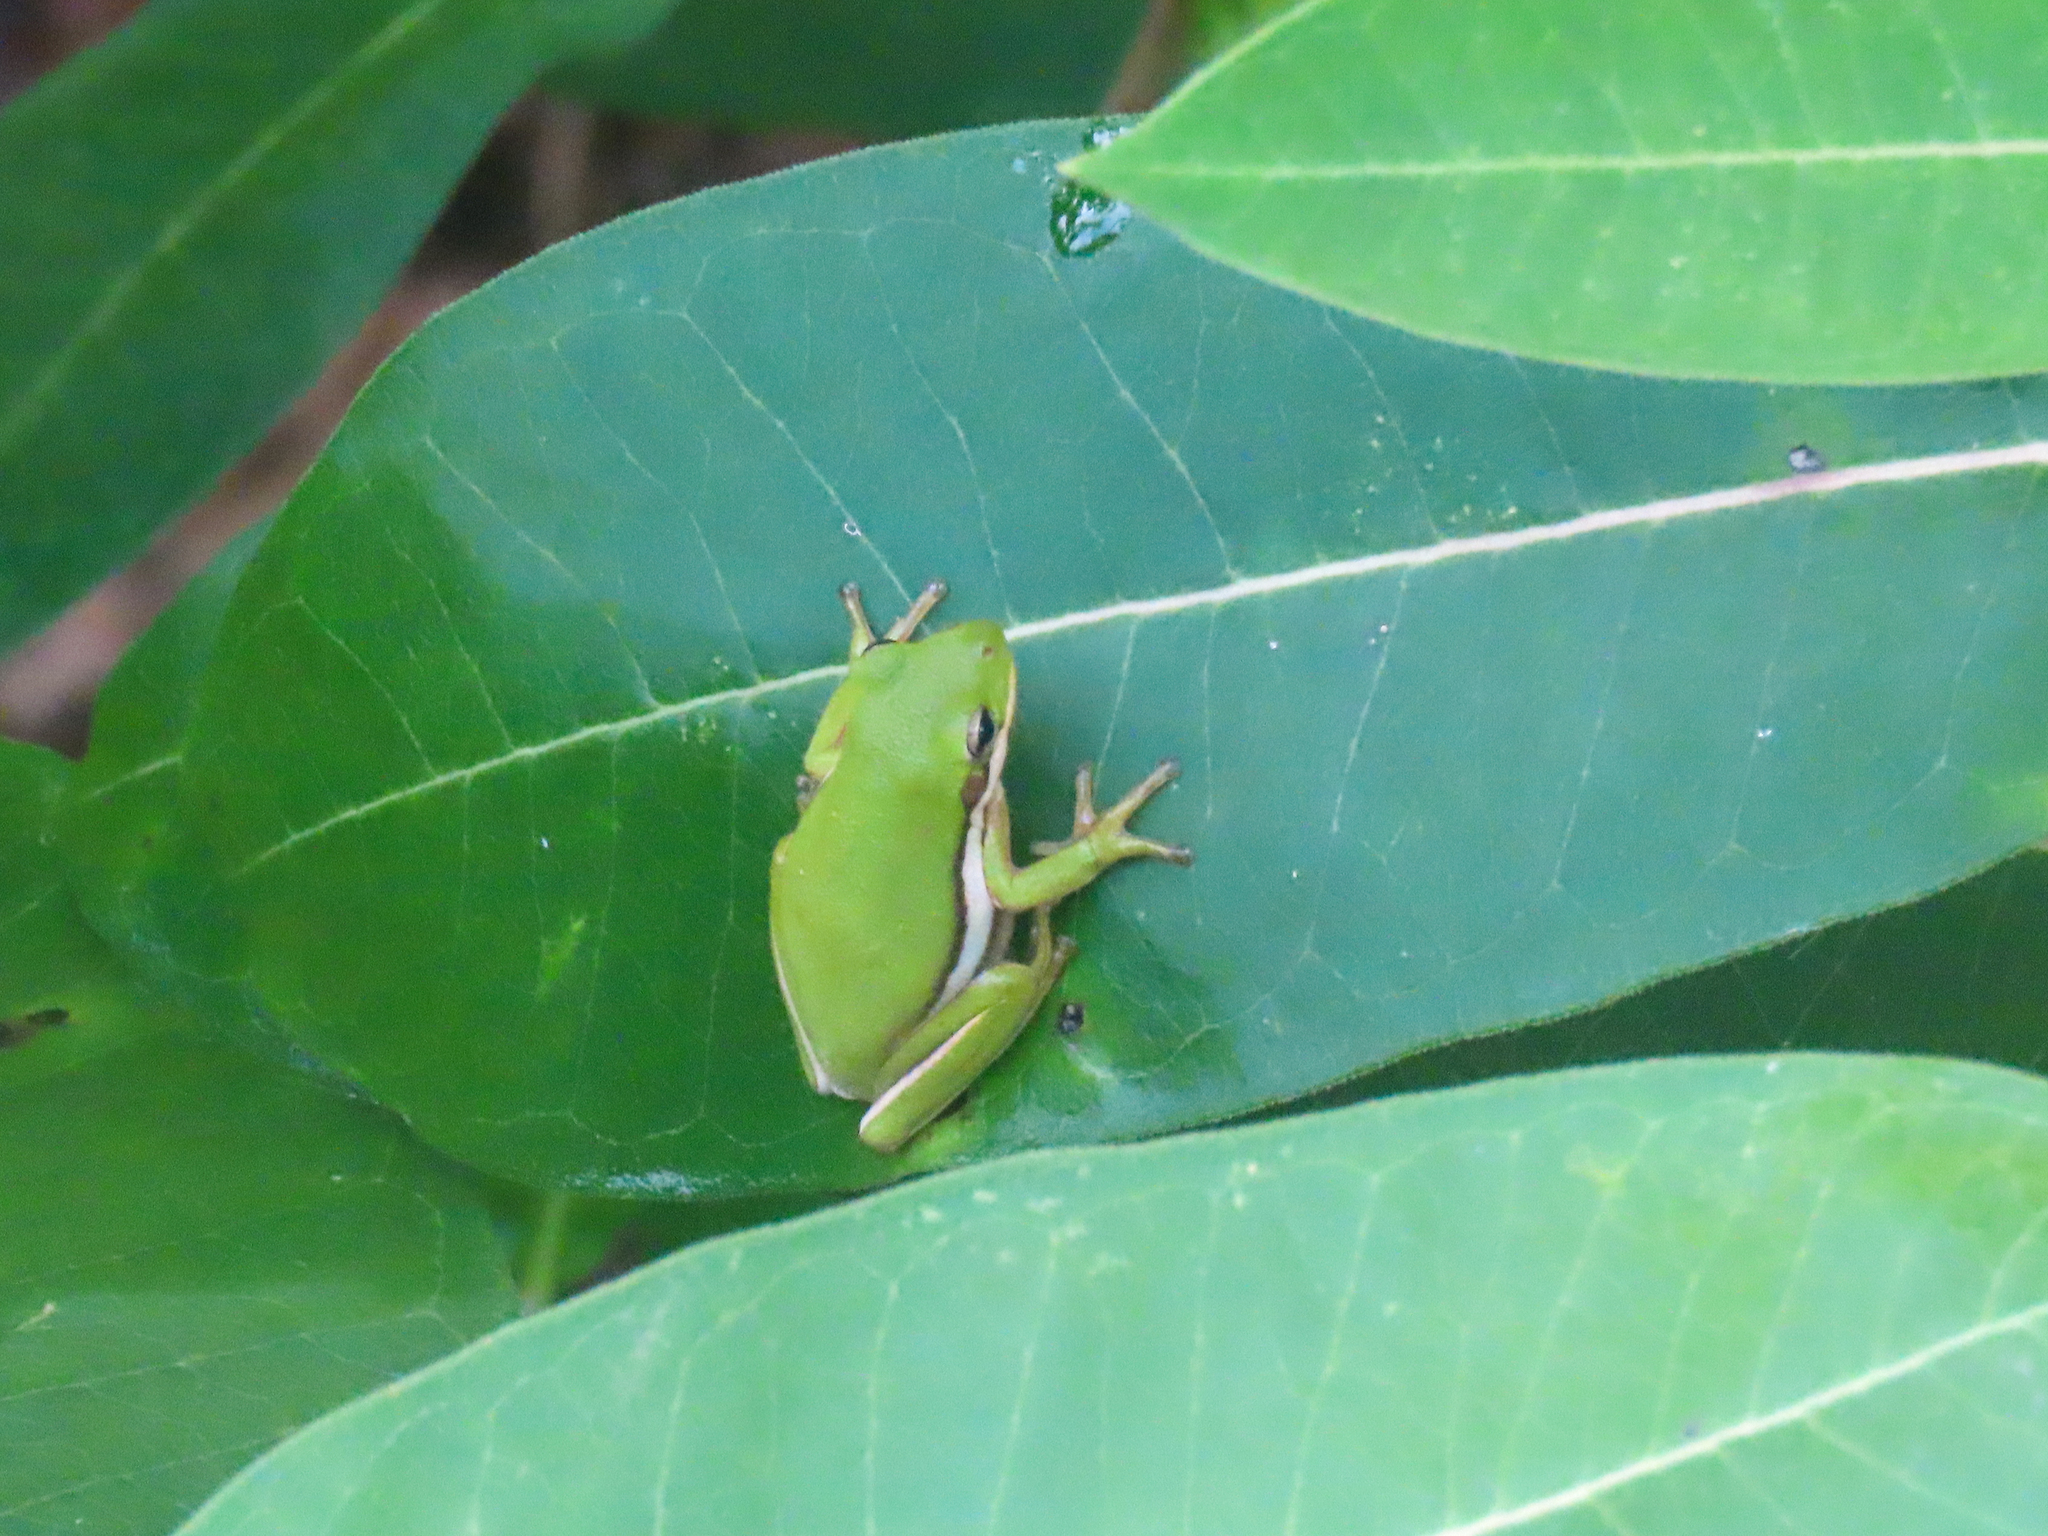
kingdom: Animalia
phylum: Chordata
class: Amphibia
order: Anura
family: Hylidae
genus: Dryophytes
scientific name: Dryophytes cinereus
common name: Green treefrog
